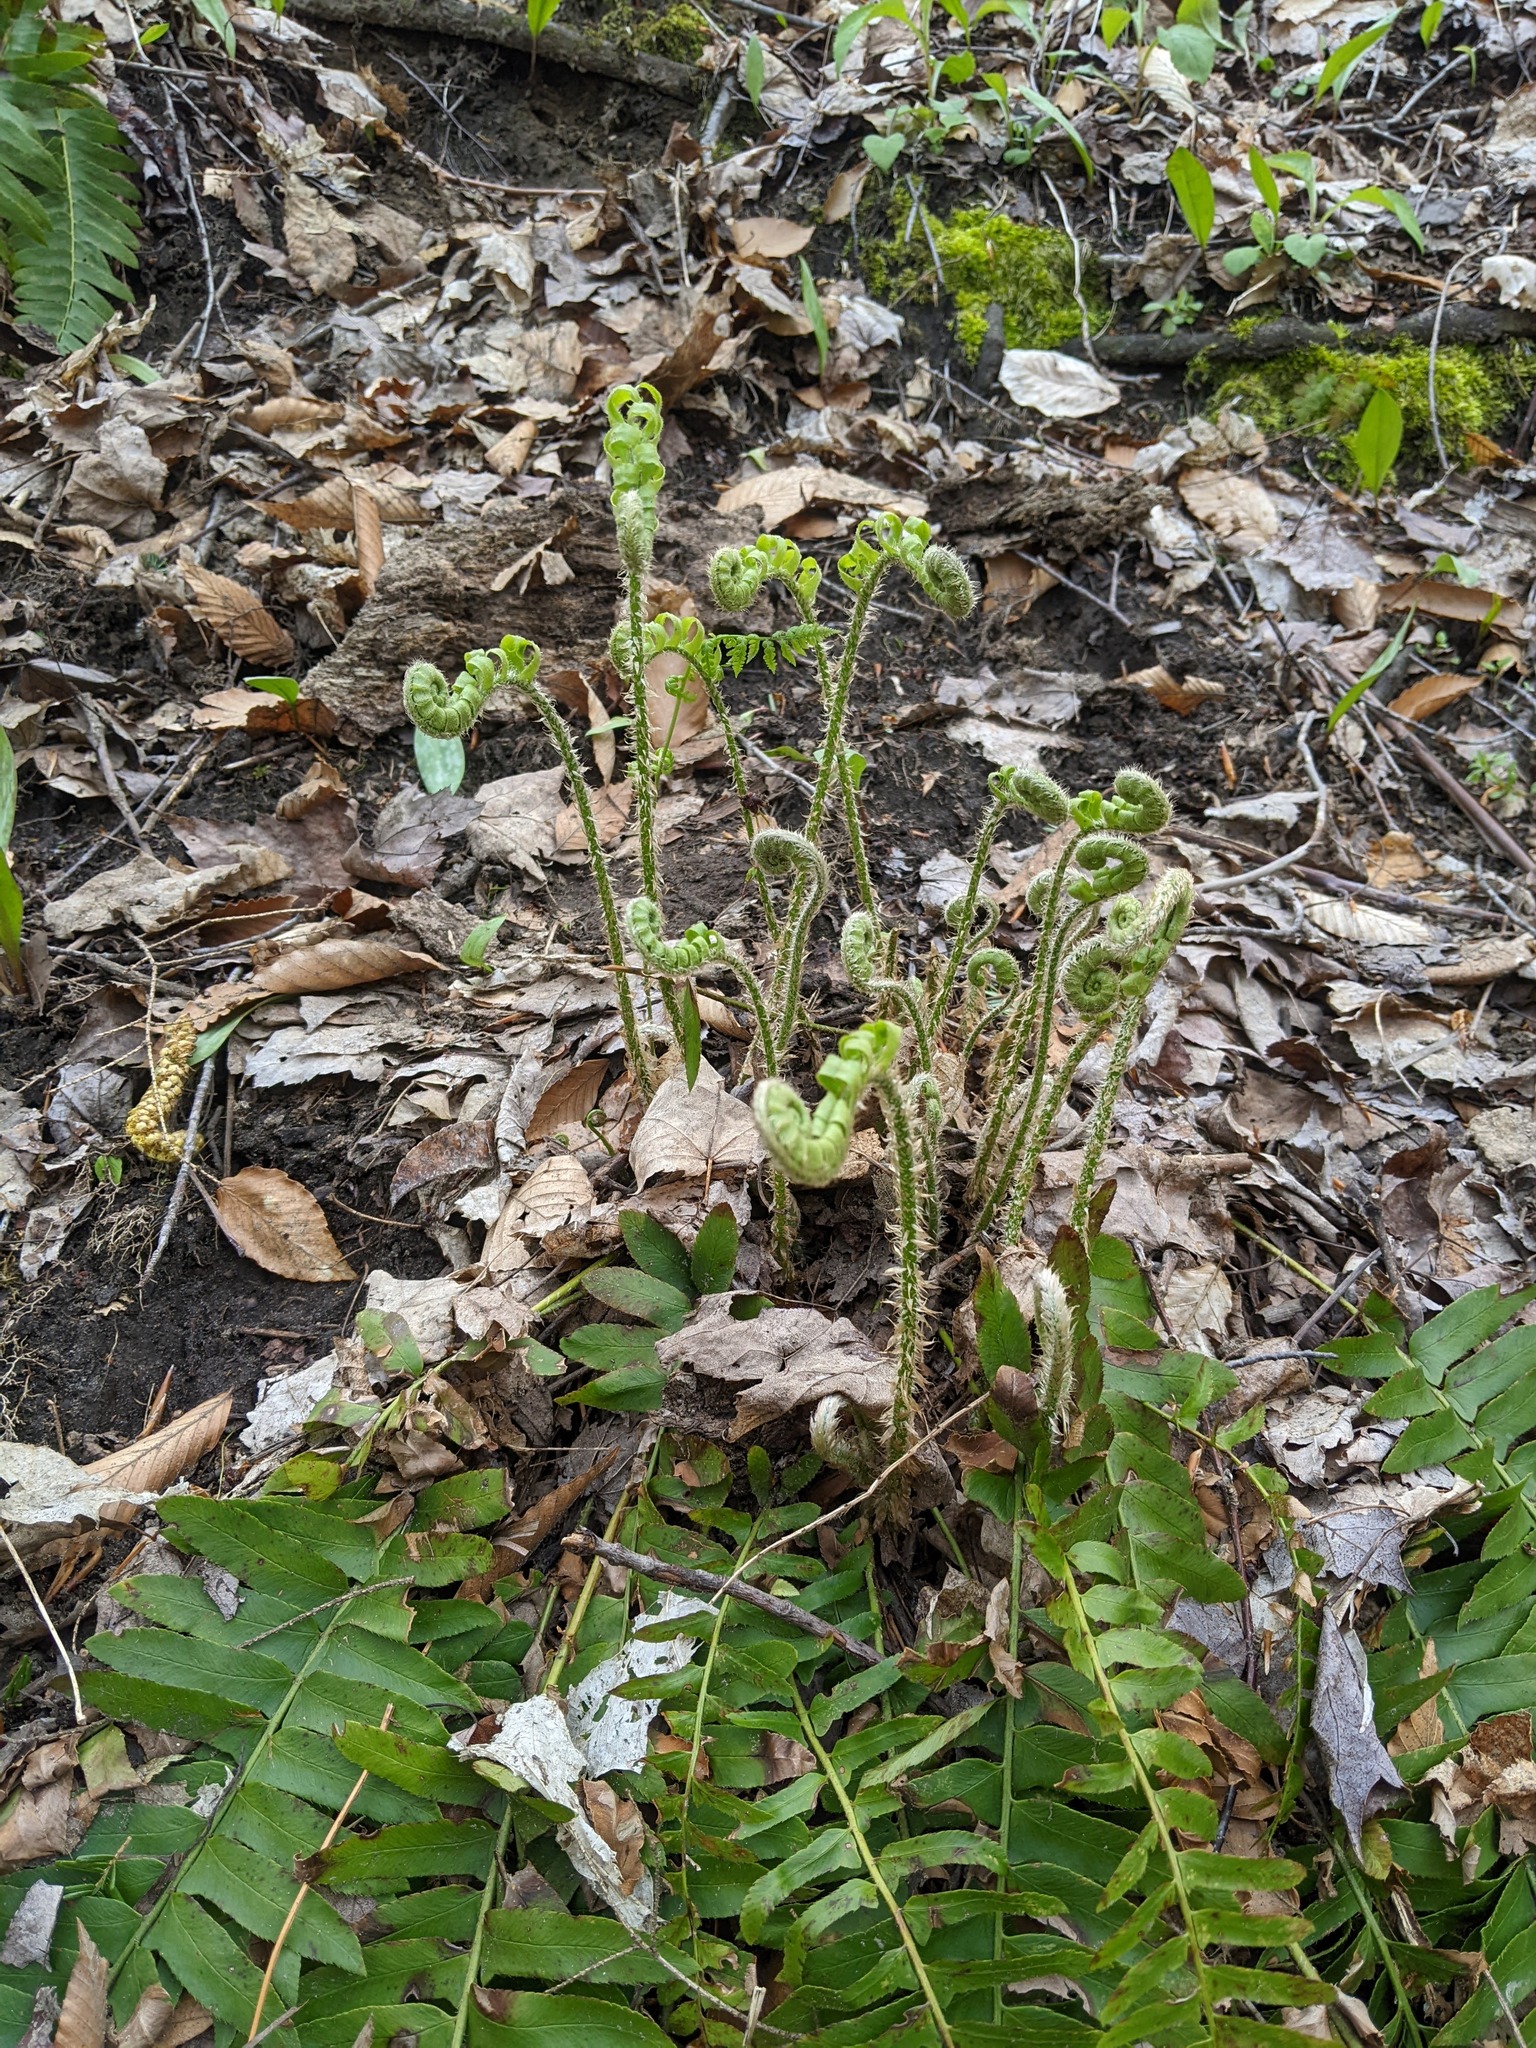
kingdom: Plantae
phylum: Tracheophyta
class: Polypodiopsida
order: Polypodiales
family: Dryopteridaceae
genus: Polystichum
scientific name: Polystichum acrostichoides
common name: Christmas fern
